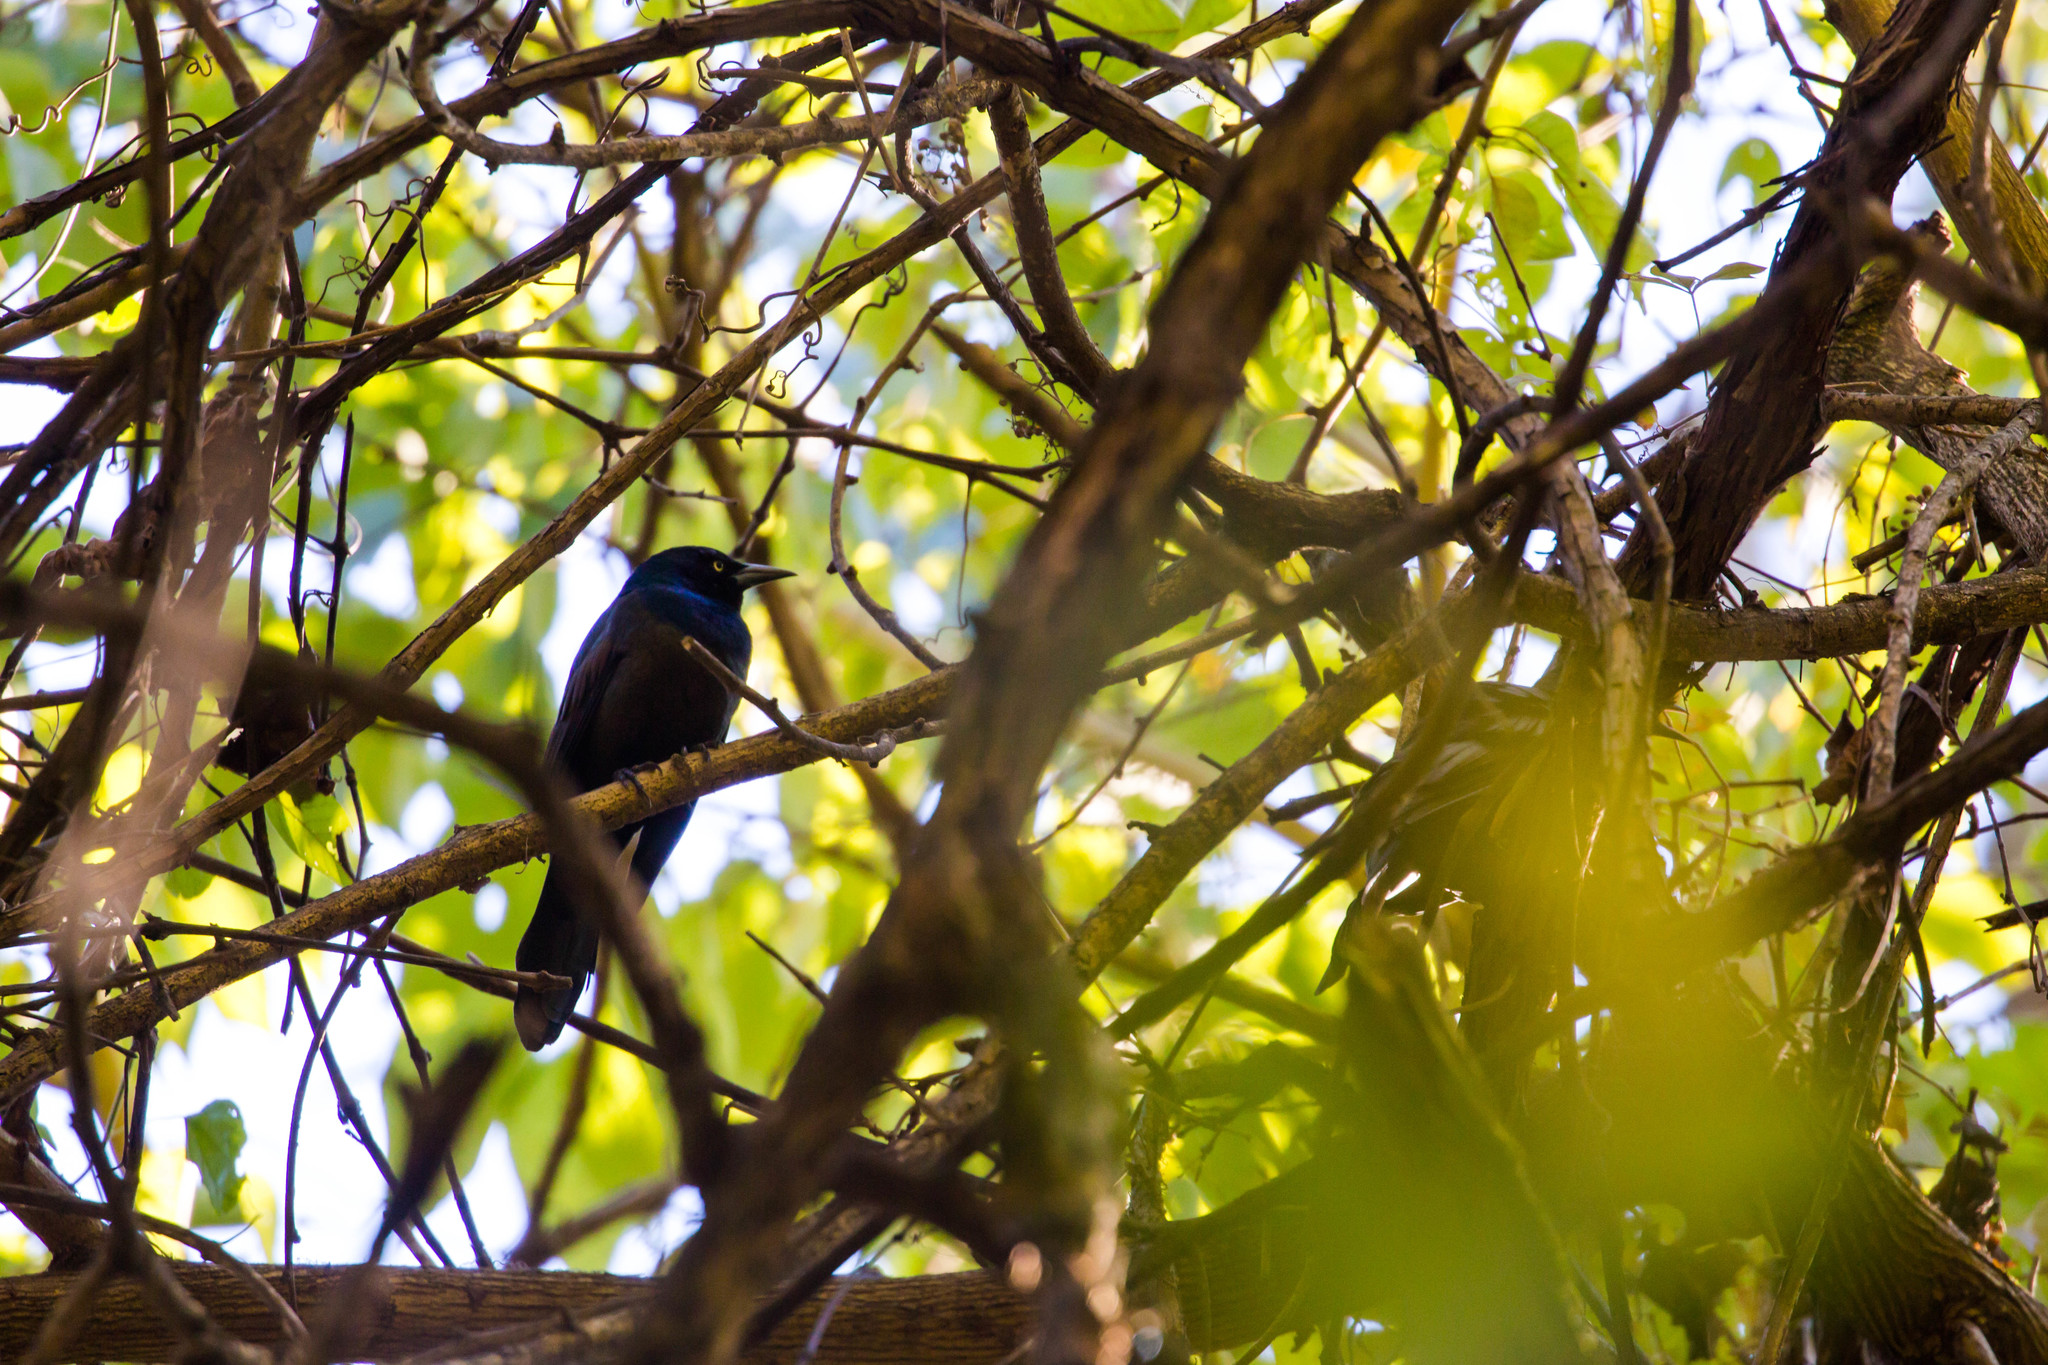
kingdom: Animalia
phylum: Chordata
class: Aves
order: Passeriformes
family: Icteridae
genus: Quiscalus
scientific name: Quiscalus quiscula
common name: Common grackle
